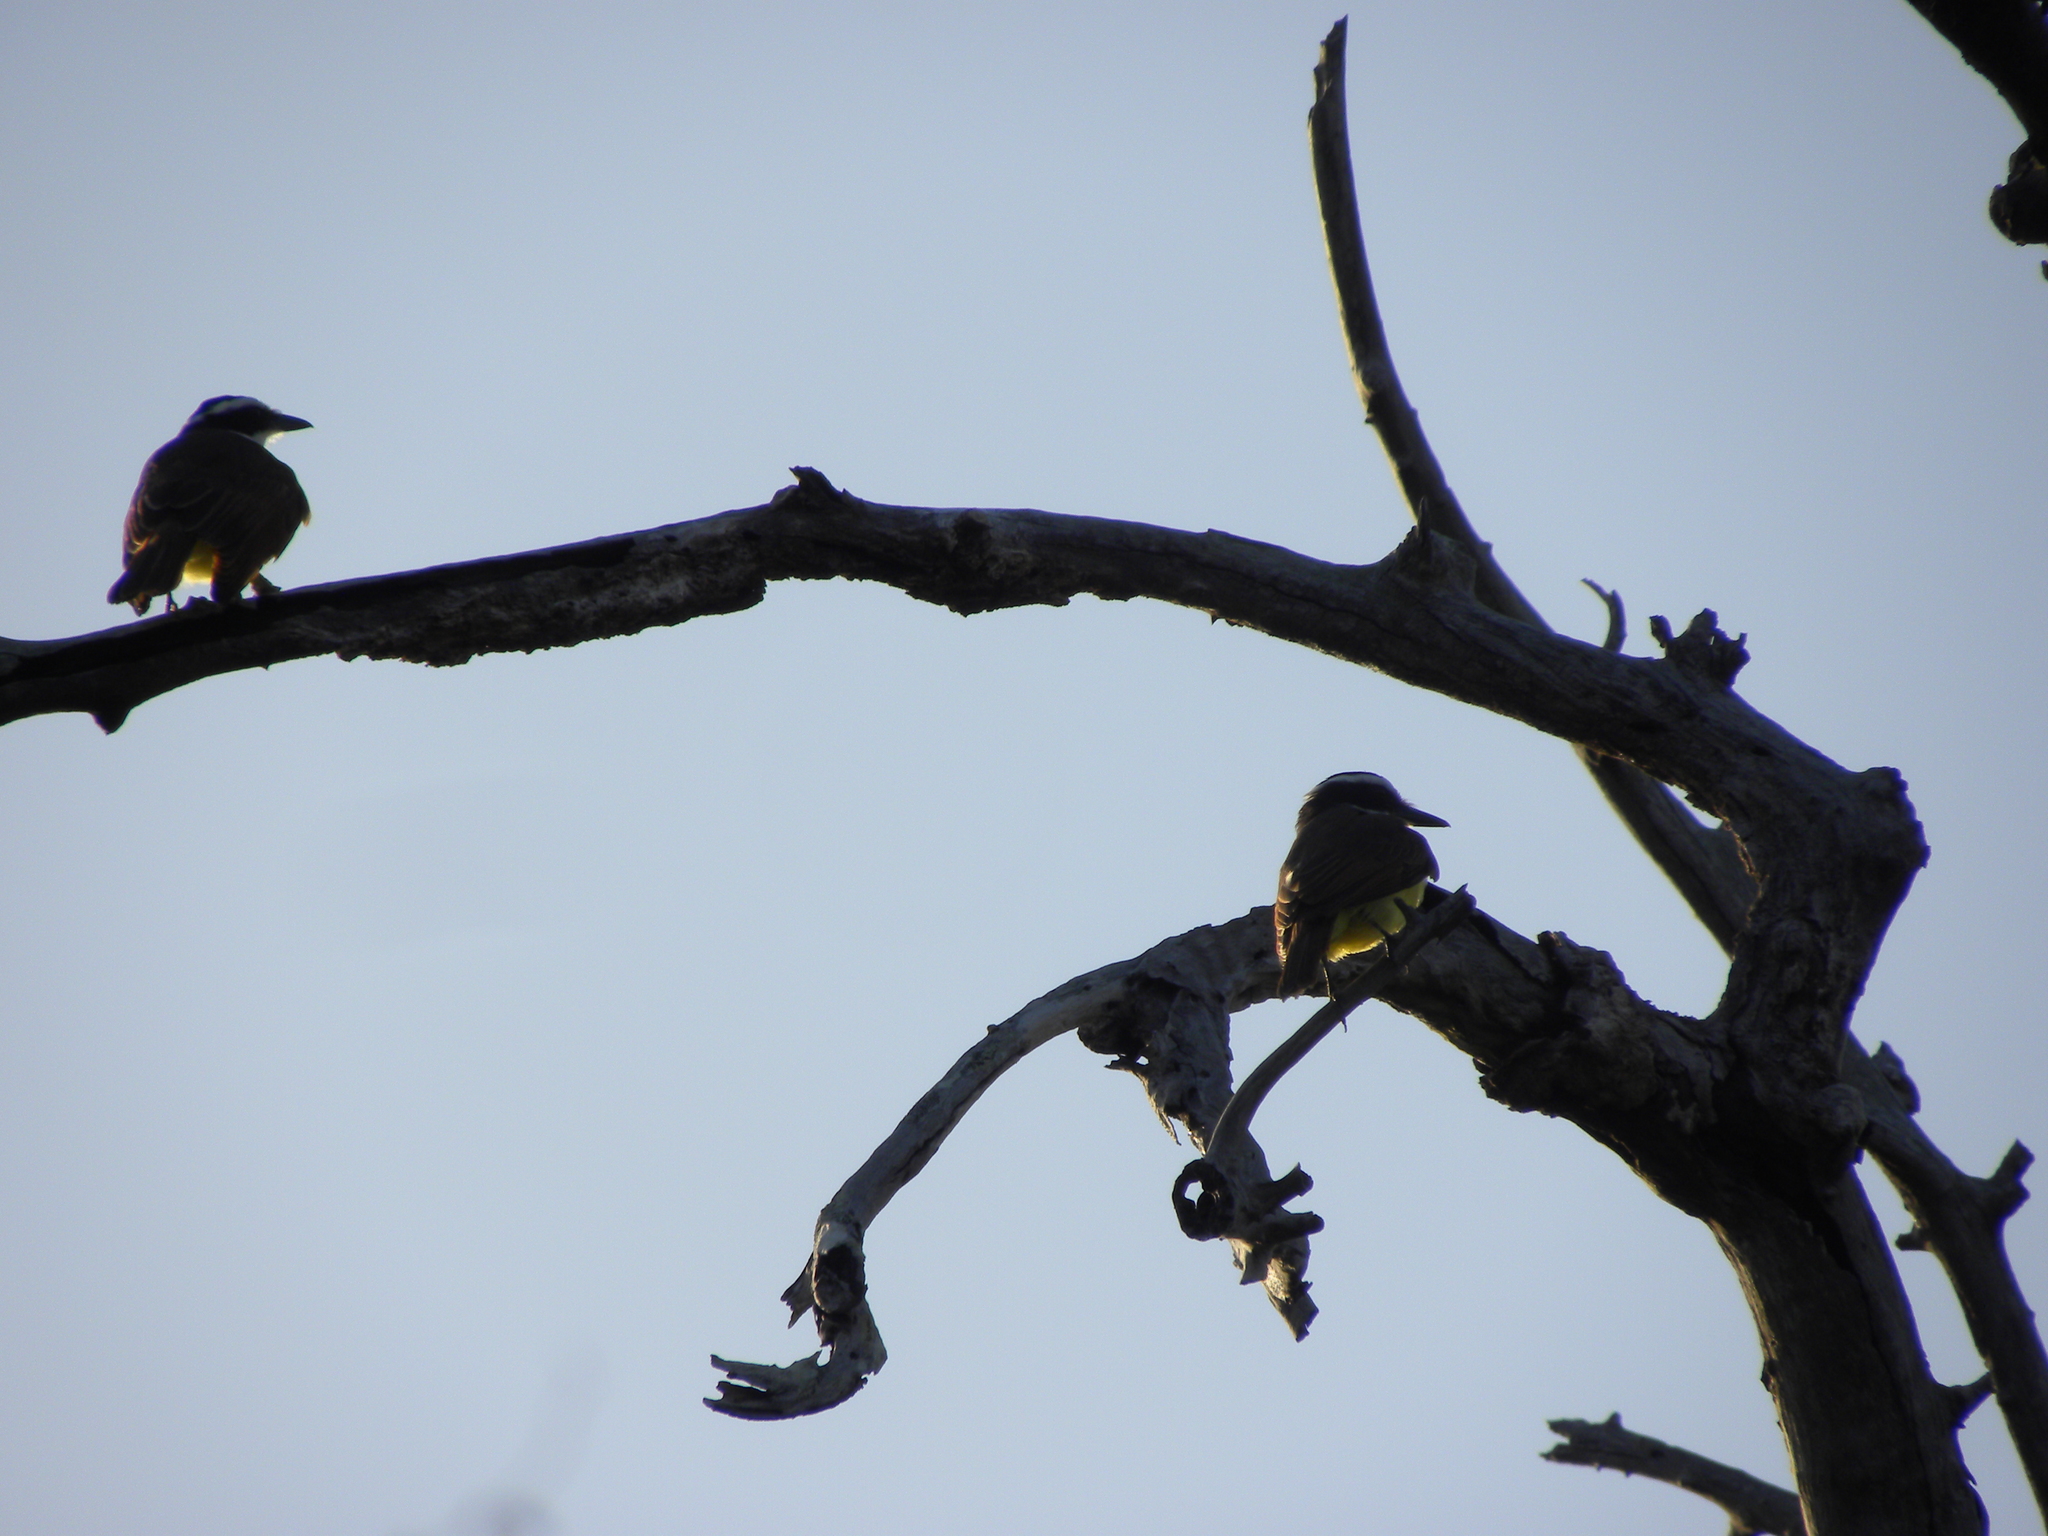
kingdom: Animalia
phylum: Chordata
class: Aves
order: Passeriformes
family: Tyrannidae
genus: Pitangus
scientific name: Pitangus sulphuratus
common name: Great kiskadee
